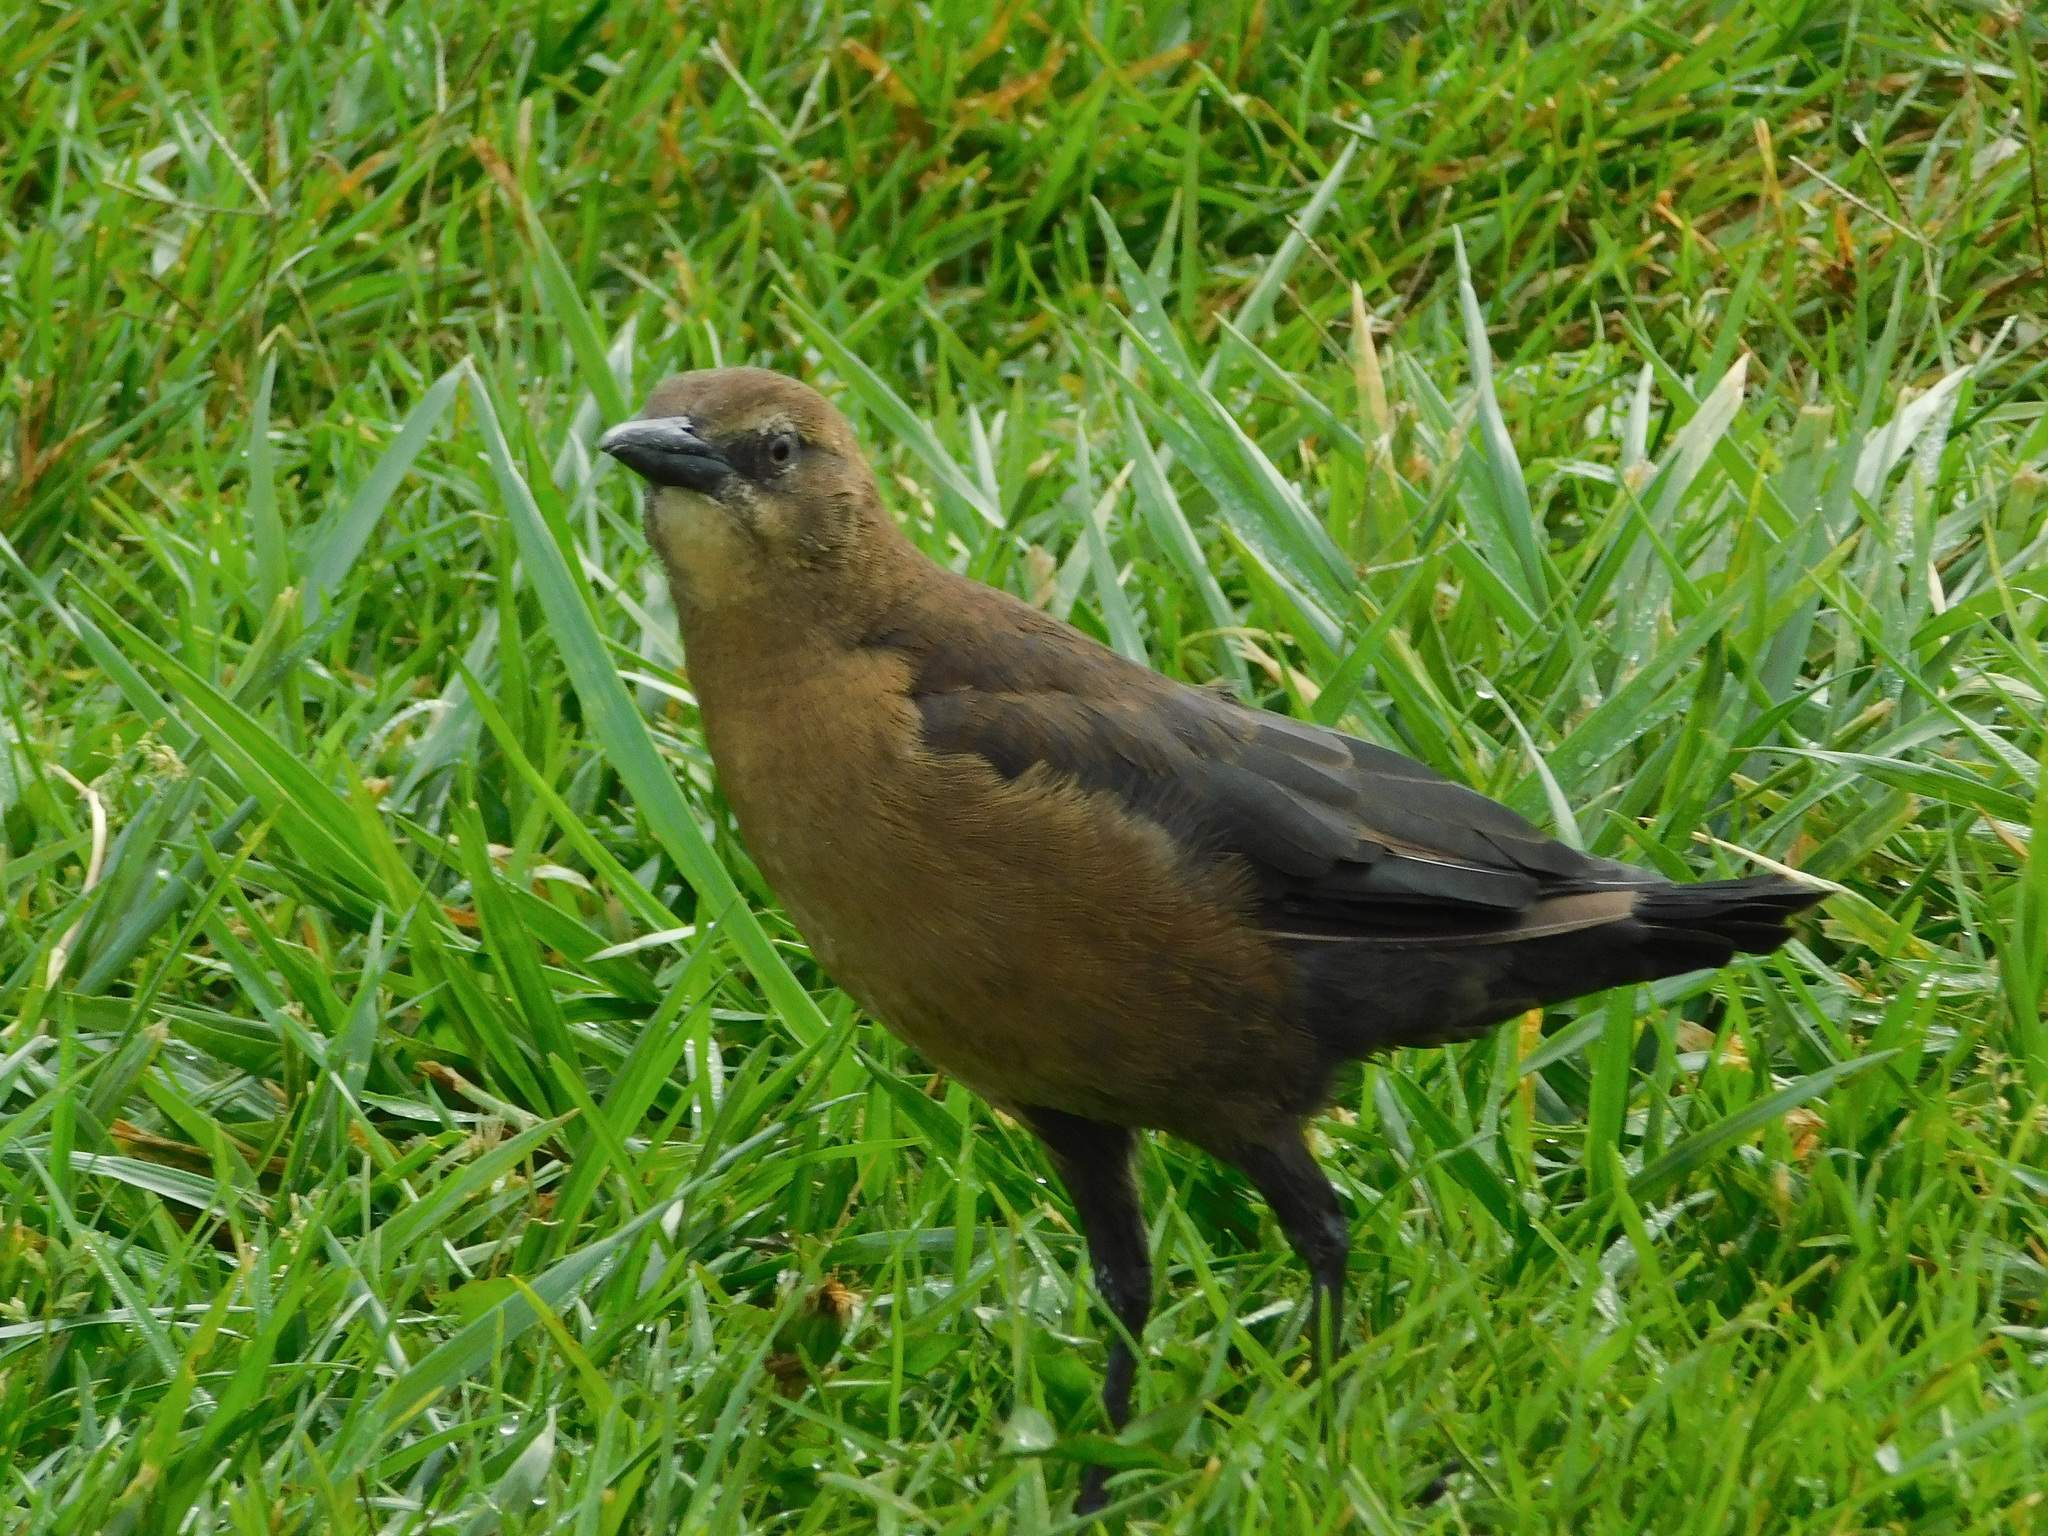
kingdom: Animalia
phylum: Chordata
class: Aves
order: Passeriformes
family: Icteridae
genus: Quiscalus
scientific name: Quiscalus mexicanus
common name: Great-tailed grackle
